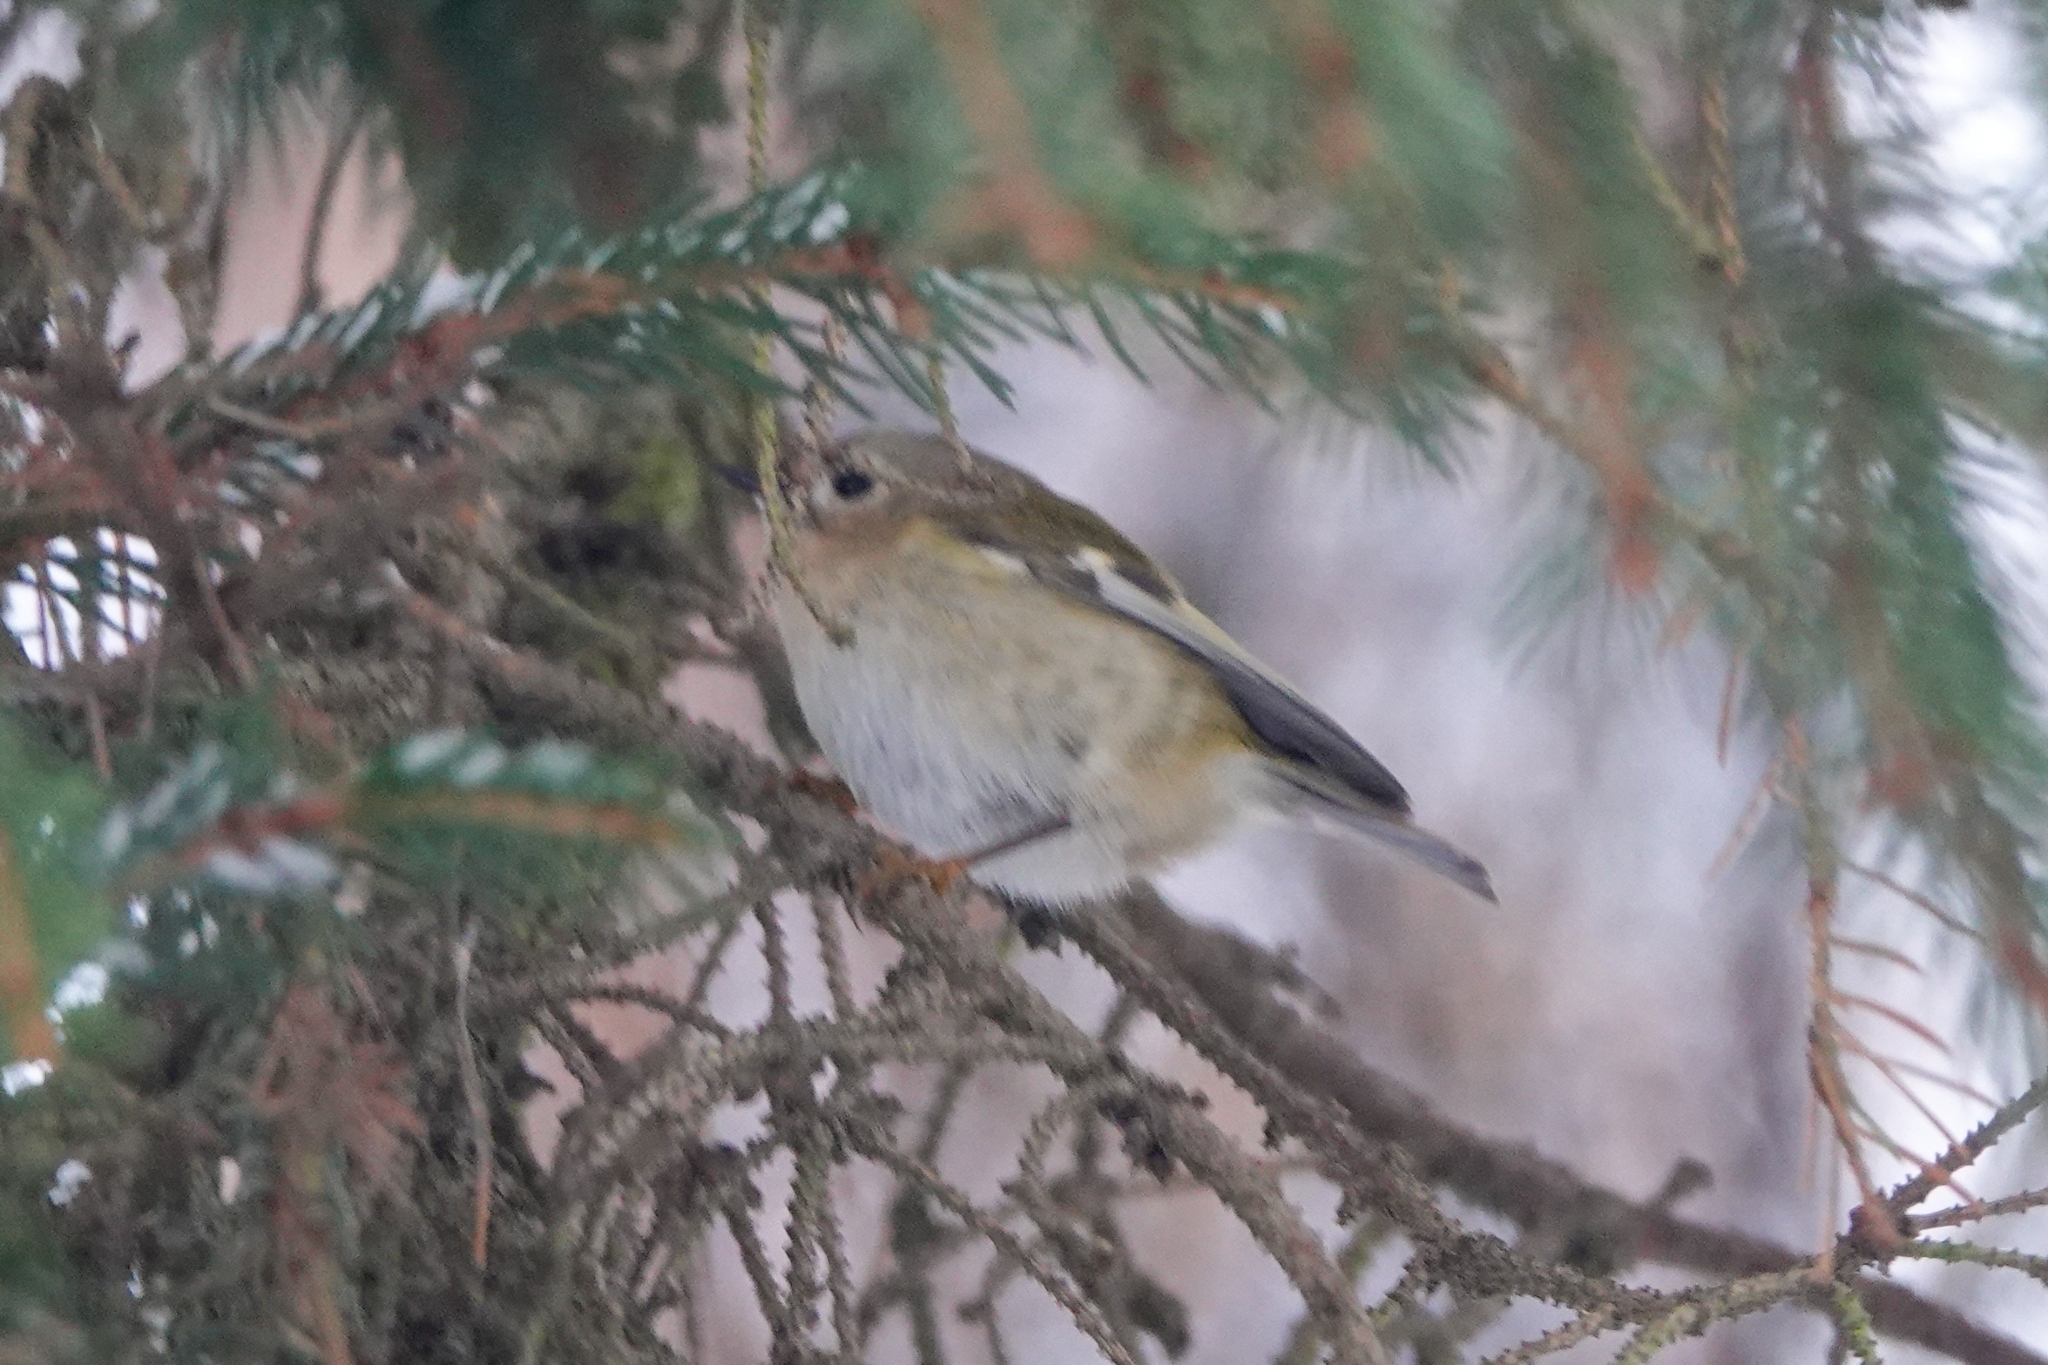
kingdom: Animalia
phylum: Chordata
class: Aves
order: Passeriformes
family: Regulidae
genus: Regulus
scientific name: Regulus regulus
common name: Goldcrest
